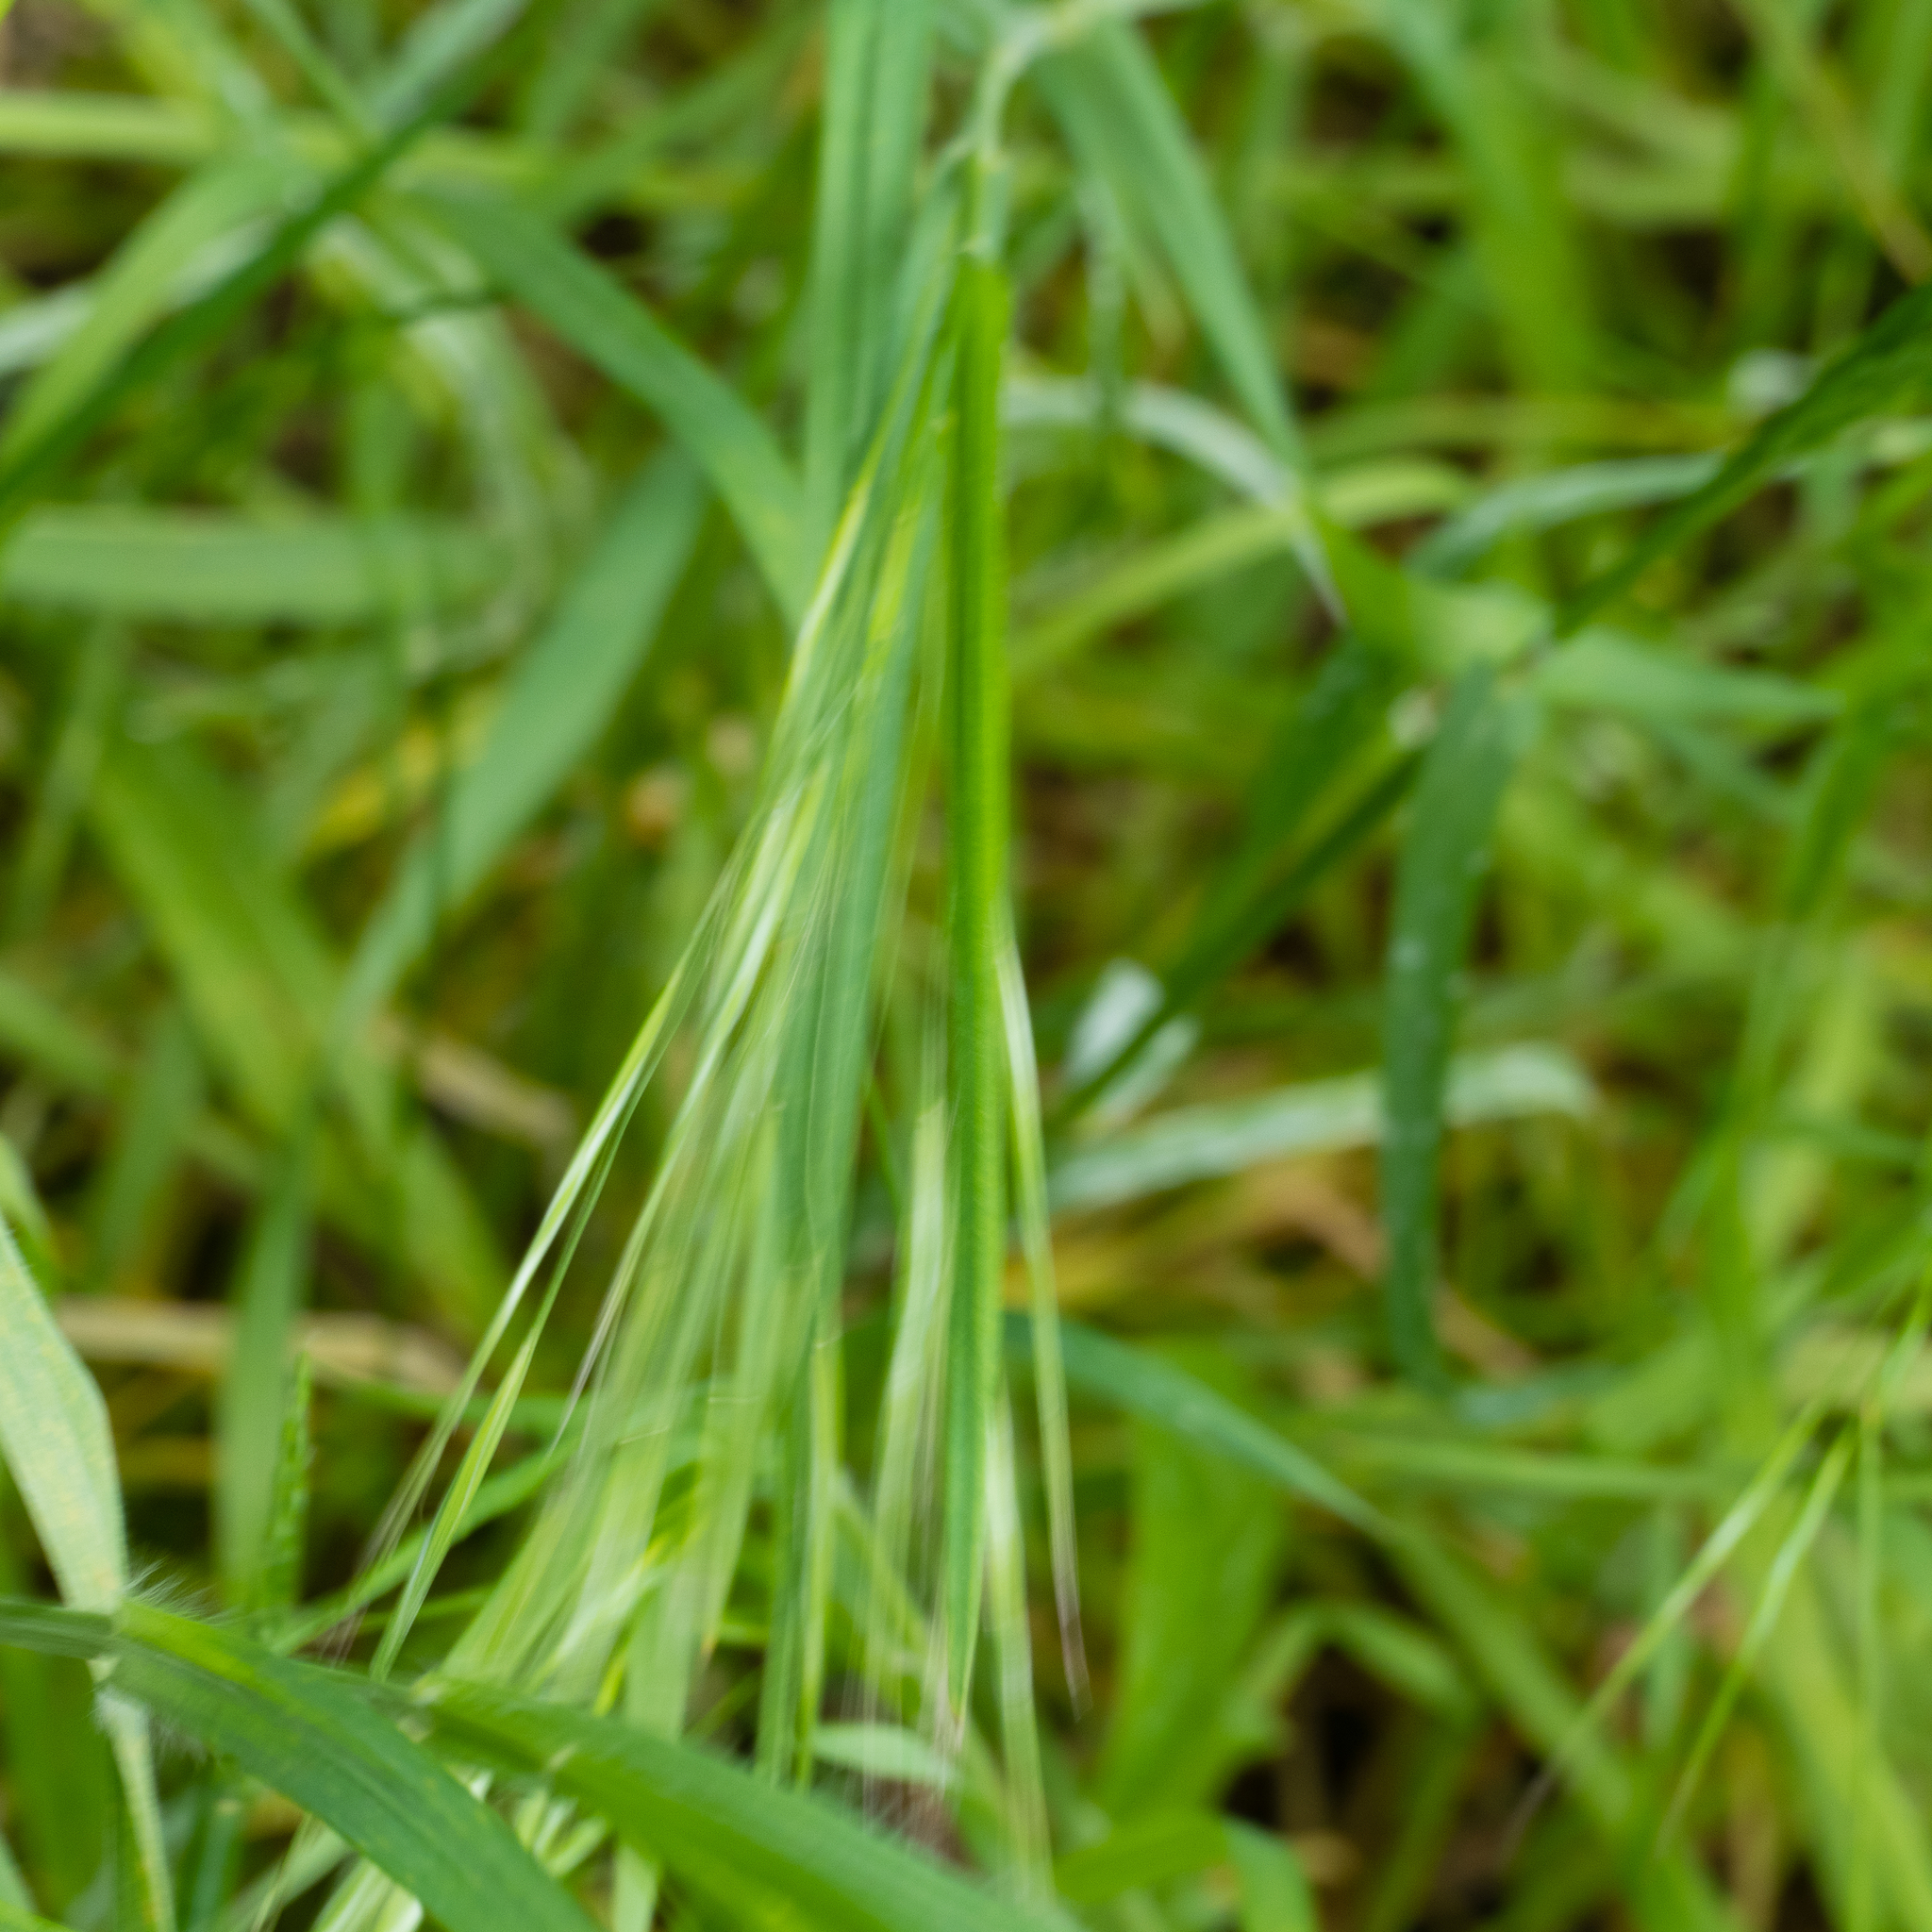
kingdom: Plantae
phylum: Tracheophyta
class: Liliopsida
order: Poales
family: Poaceae
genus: Bromus
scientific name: Bromus sterilis
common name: Poverty brome
